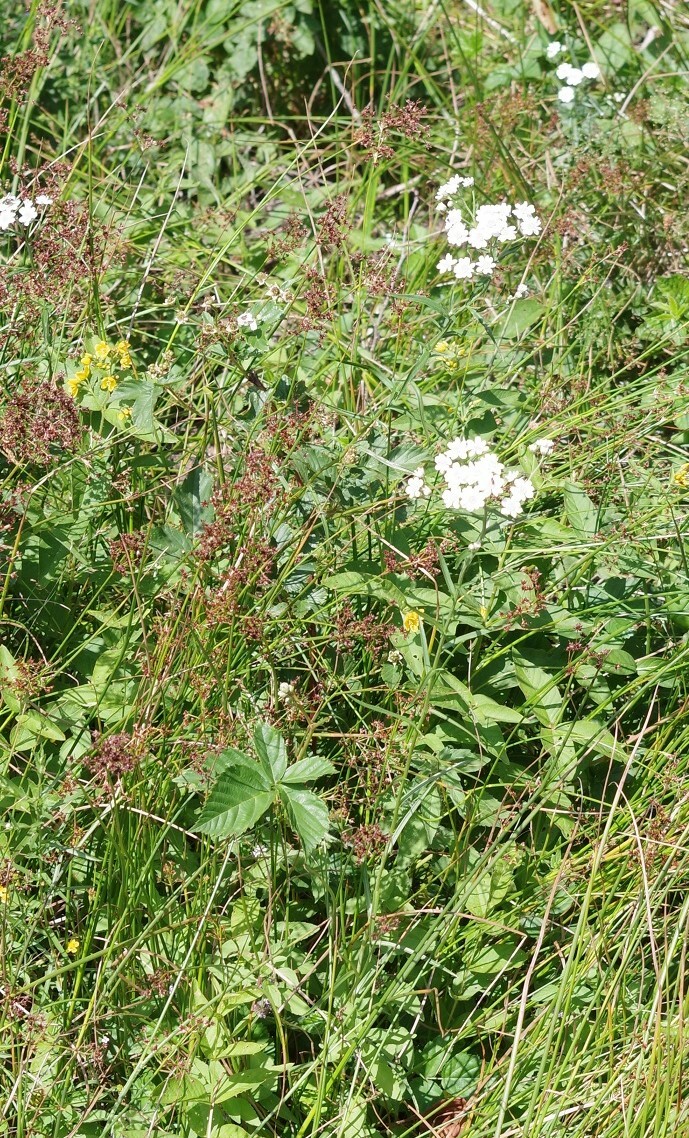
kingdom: Plantae
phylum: Tracheophyta
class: Magnoliopsida
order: Asterales
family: Asteraceae
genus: Achillea
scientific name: Achillea ptarmica
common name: Sneezeweed
